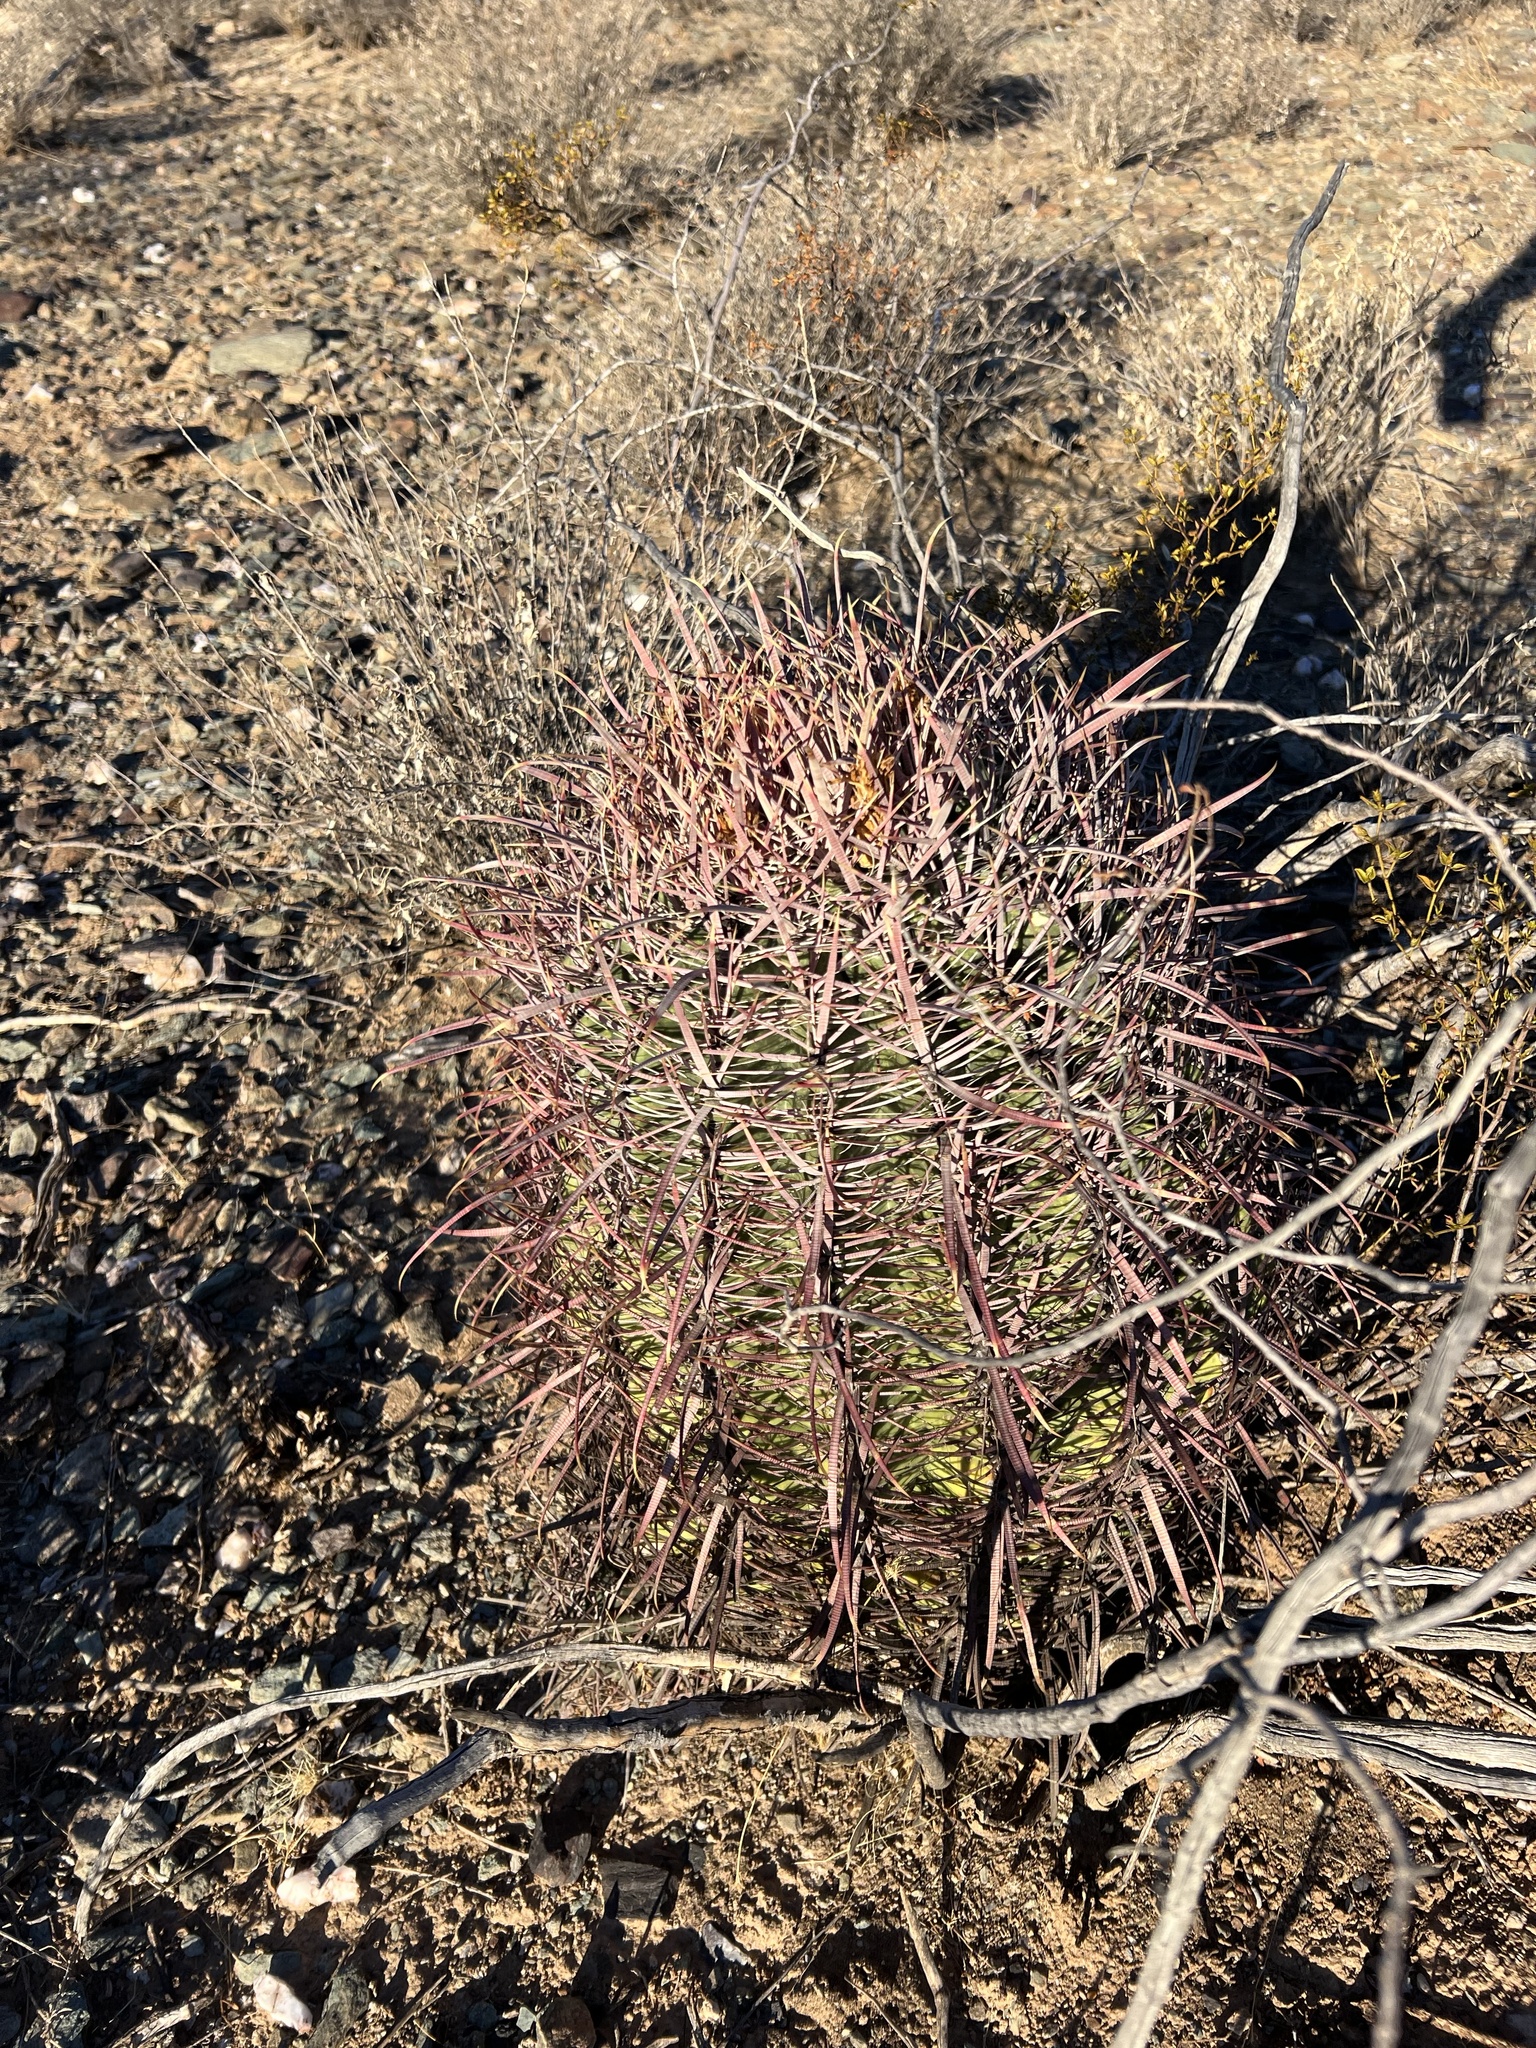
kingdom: Plantae
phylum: Tracheophyta
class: Magnoliopsida
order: Caryophyllales
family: Cactaceae
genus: Ferocactus
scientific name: Ferocactus cylindraceus
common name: California barrel cactus
